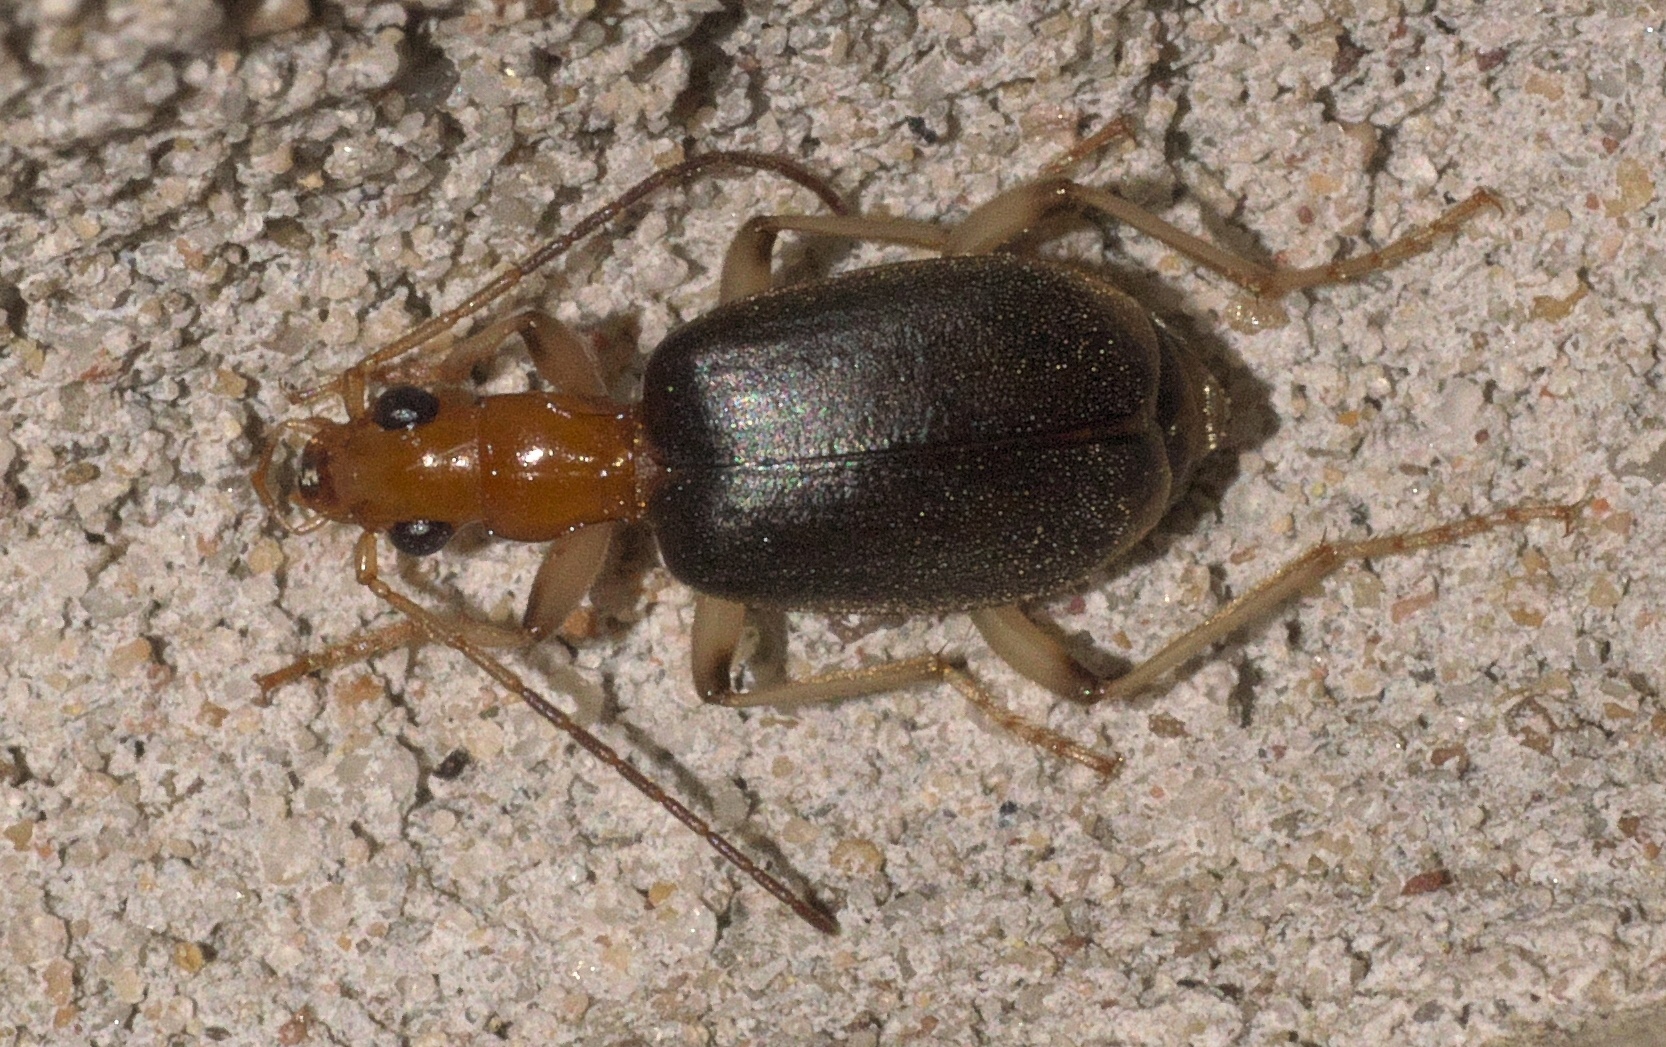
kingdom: Animalia
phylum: Arthropoda
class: Insecta
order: Coleoptera
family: Carabidae
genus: Brachinus
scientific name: Brachinus adustipennis
